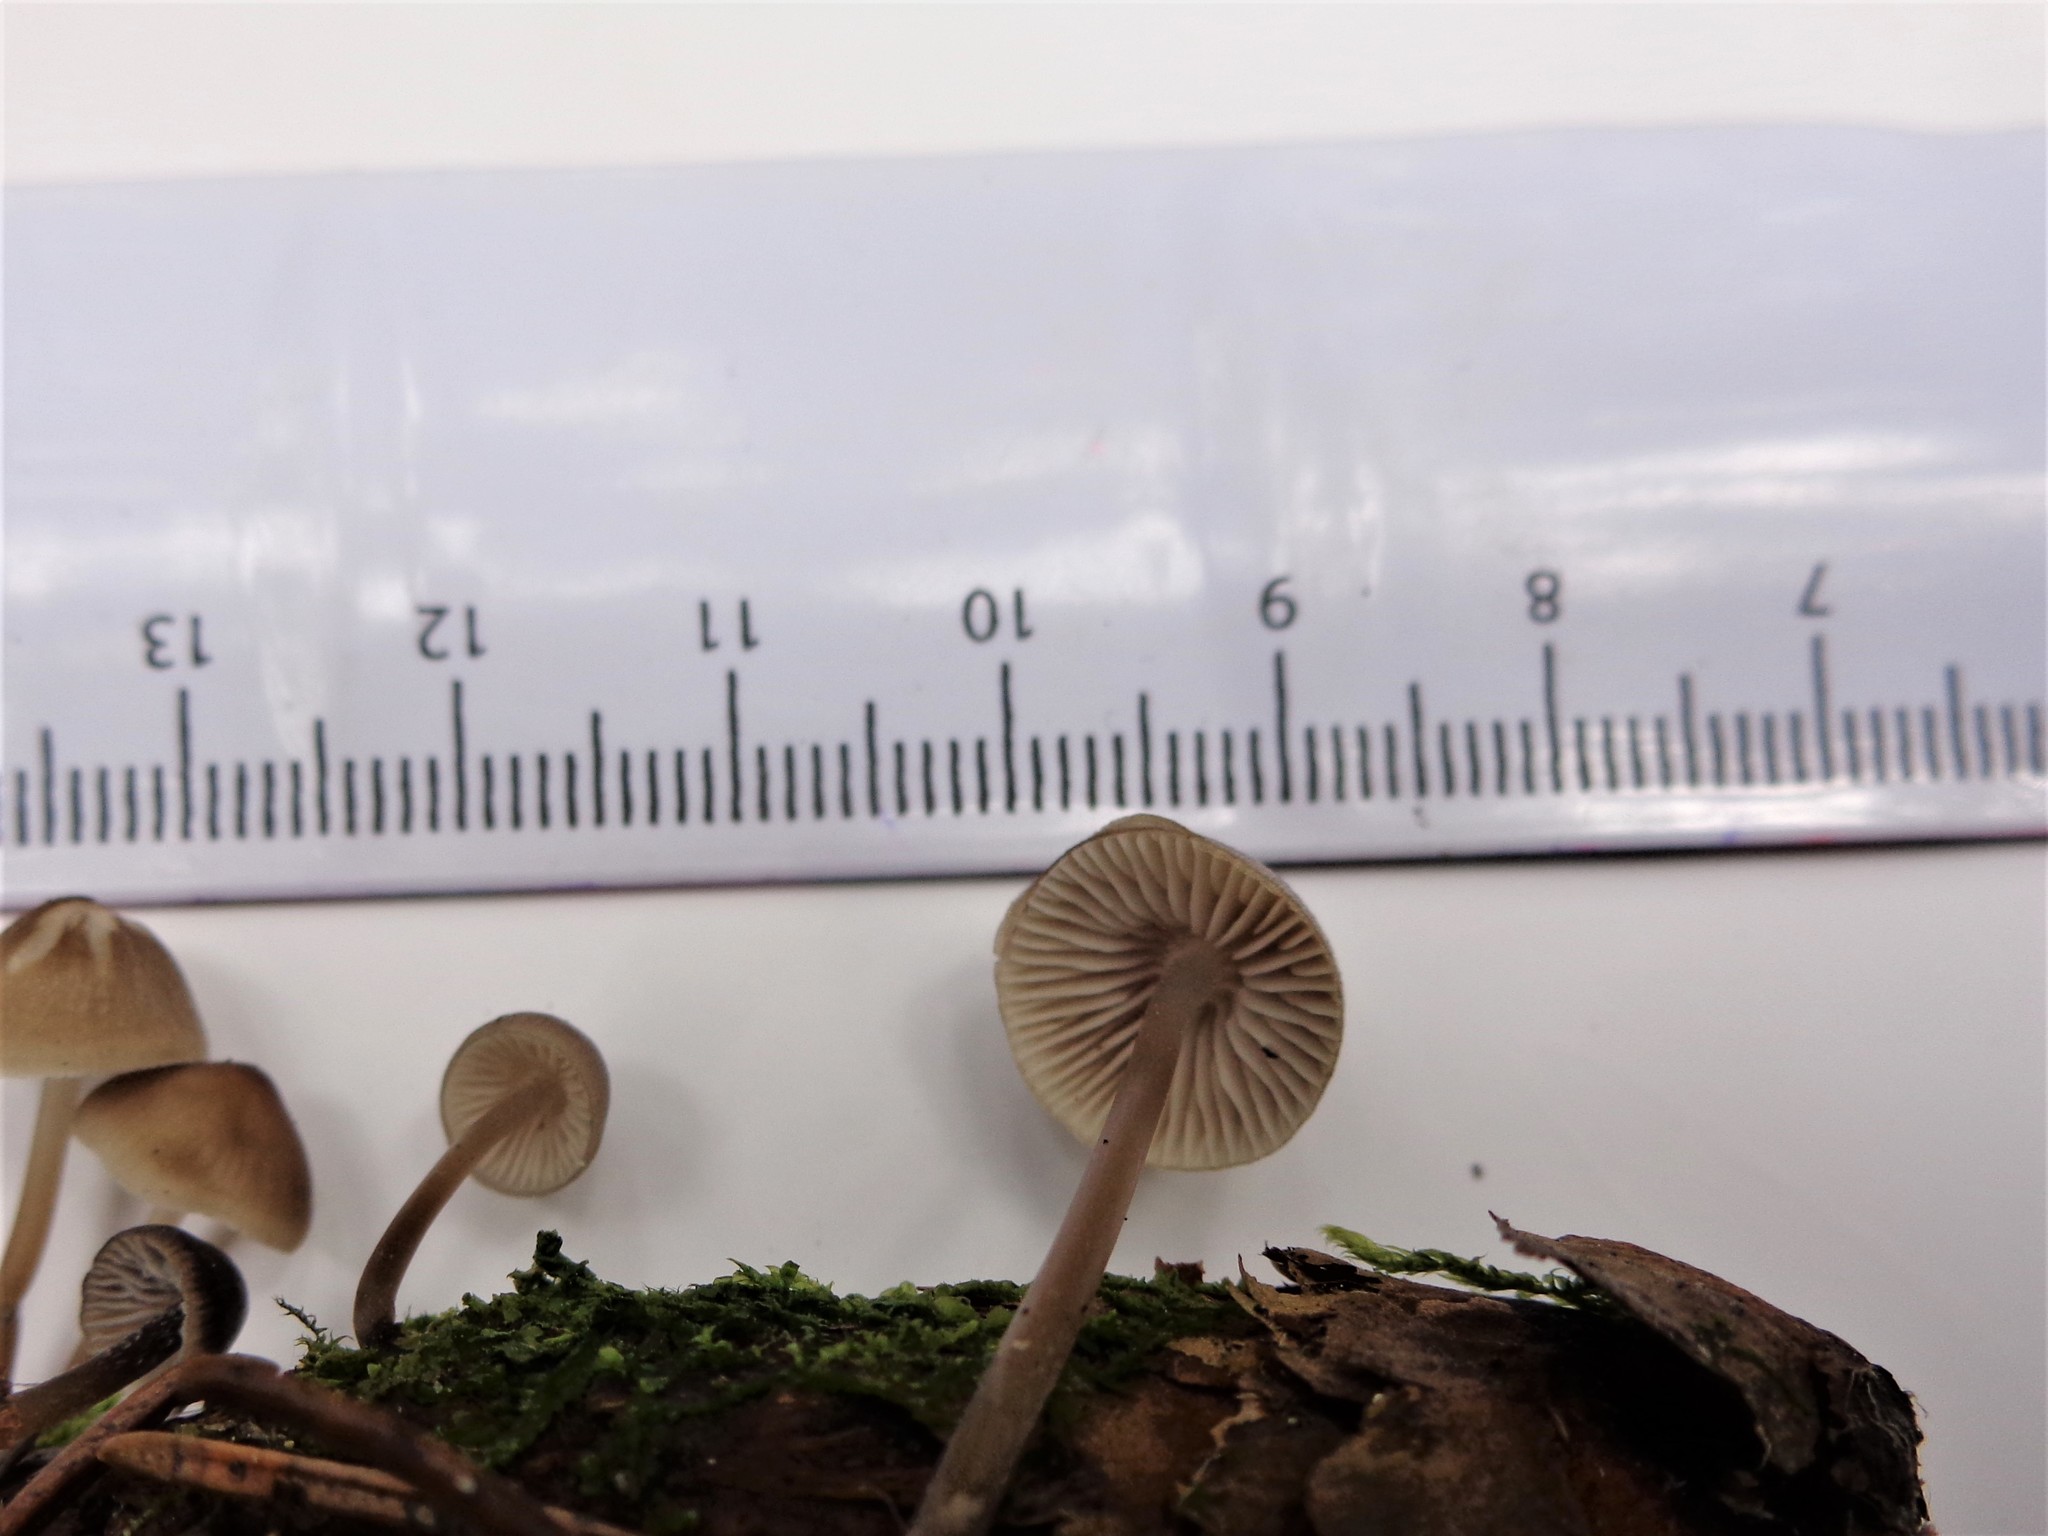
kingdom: Fungi
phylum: Basidiomycota
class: Agaricomycetes
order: Agaricales
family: Mycenaceae
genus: Mycena
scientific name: Mycena plumipes
